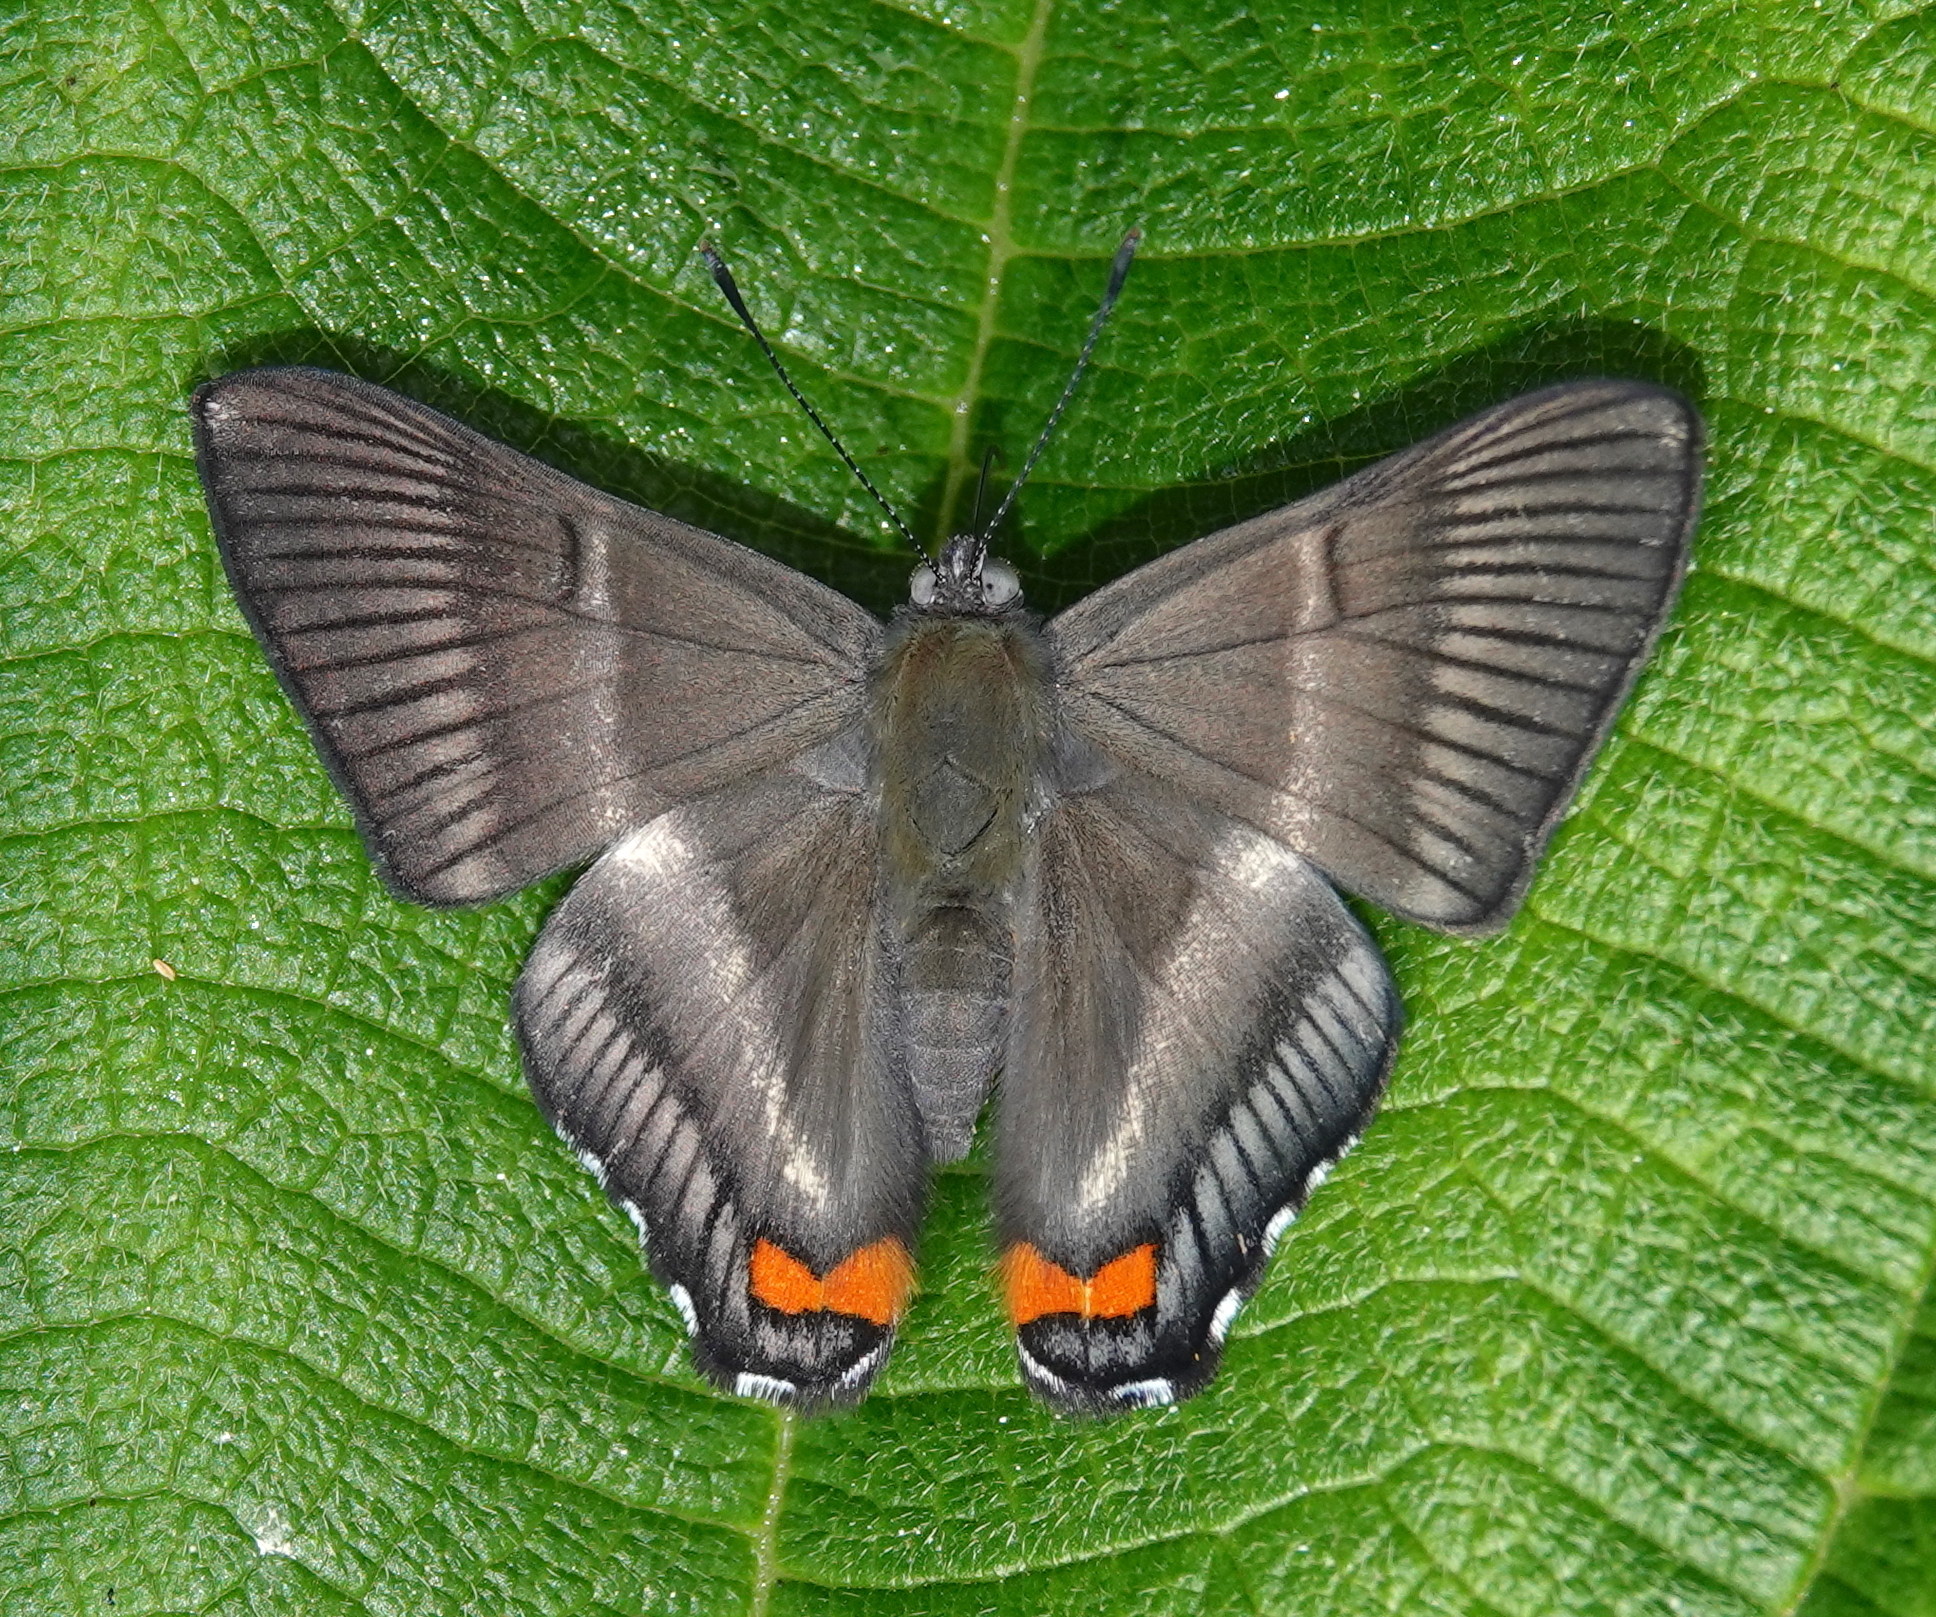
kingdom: Animalia
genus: Siseme
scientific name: Siseme aristoteles
